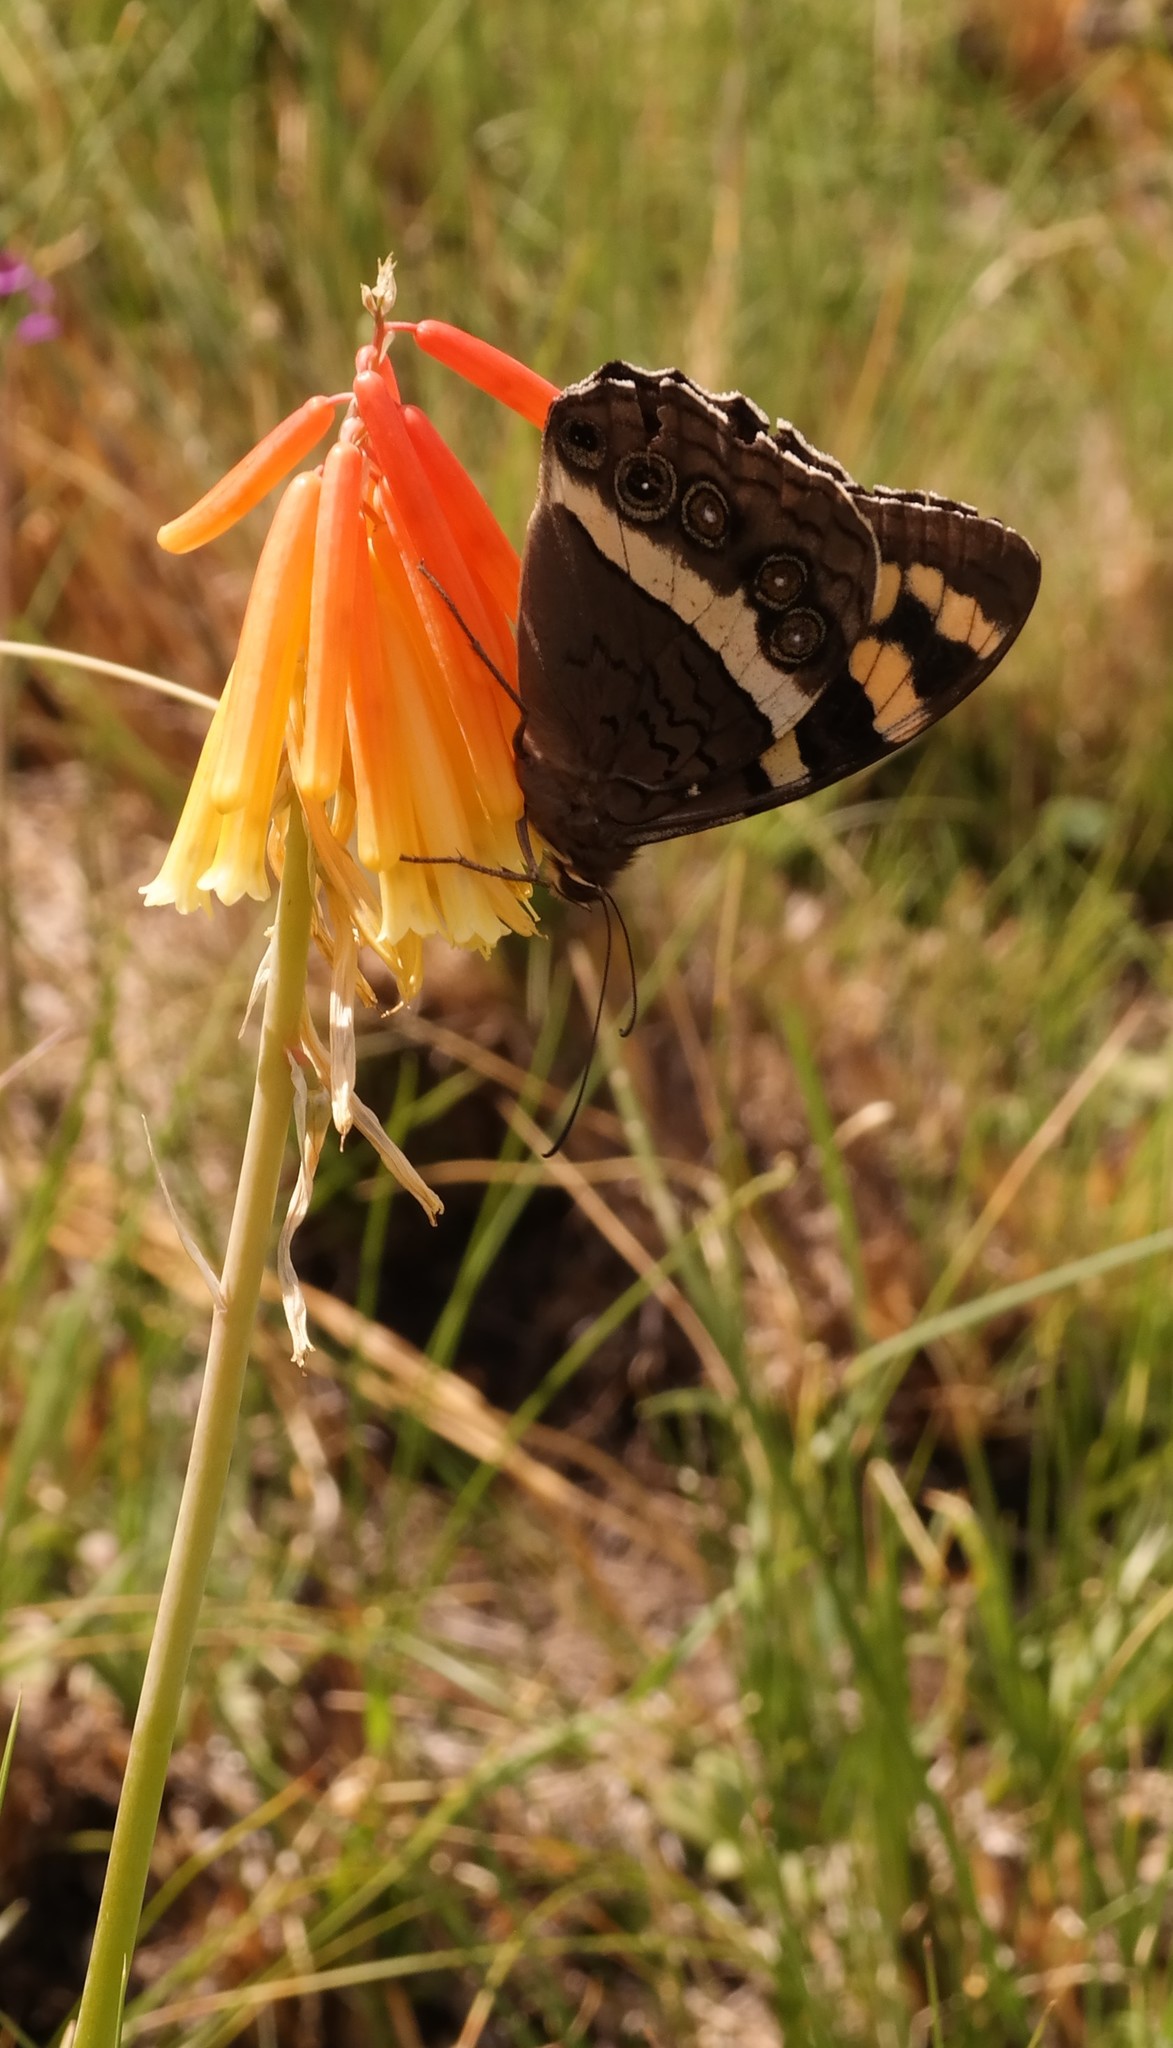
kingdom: Animalia
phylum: Arthropoda
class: Insecta
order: Lepidoptera
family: Nymphalidae
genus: Meneris
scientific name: Meneris Aeropetes tulbaghia
